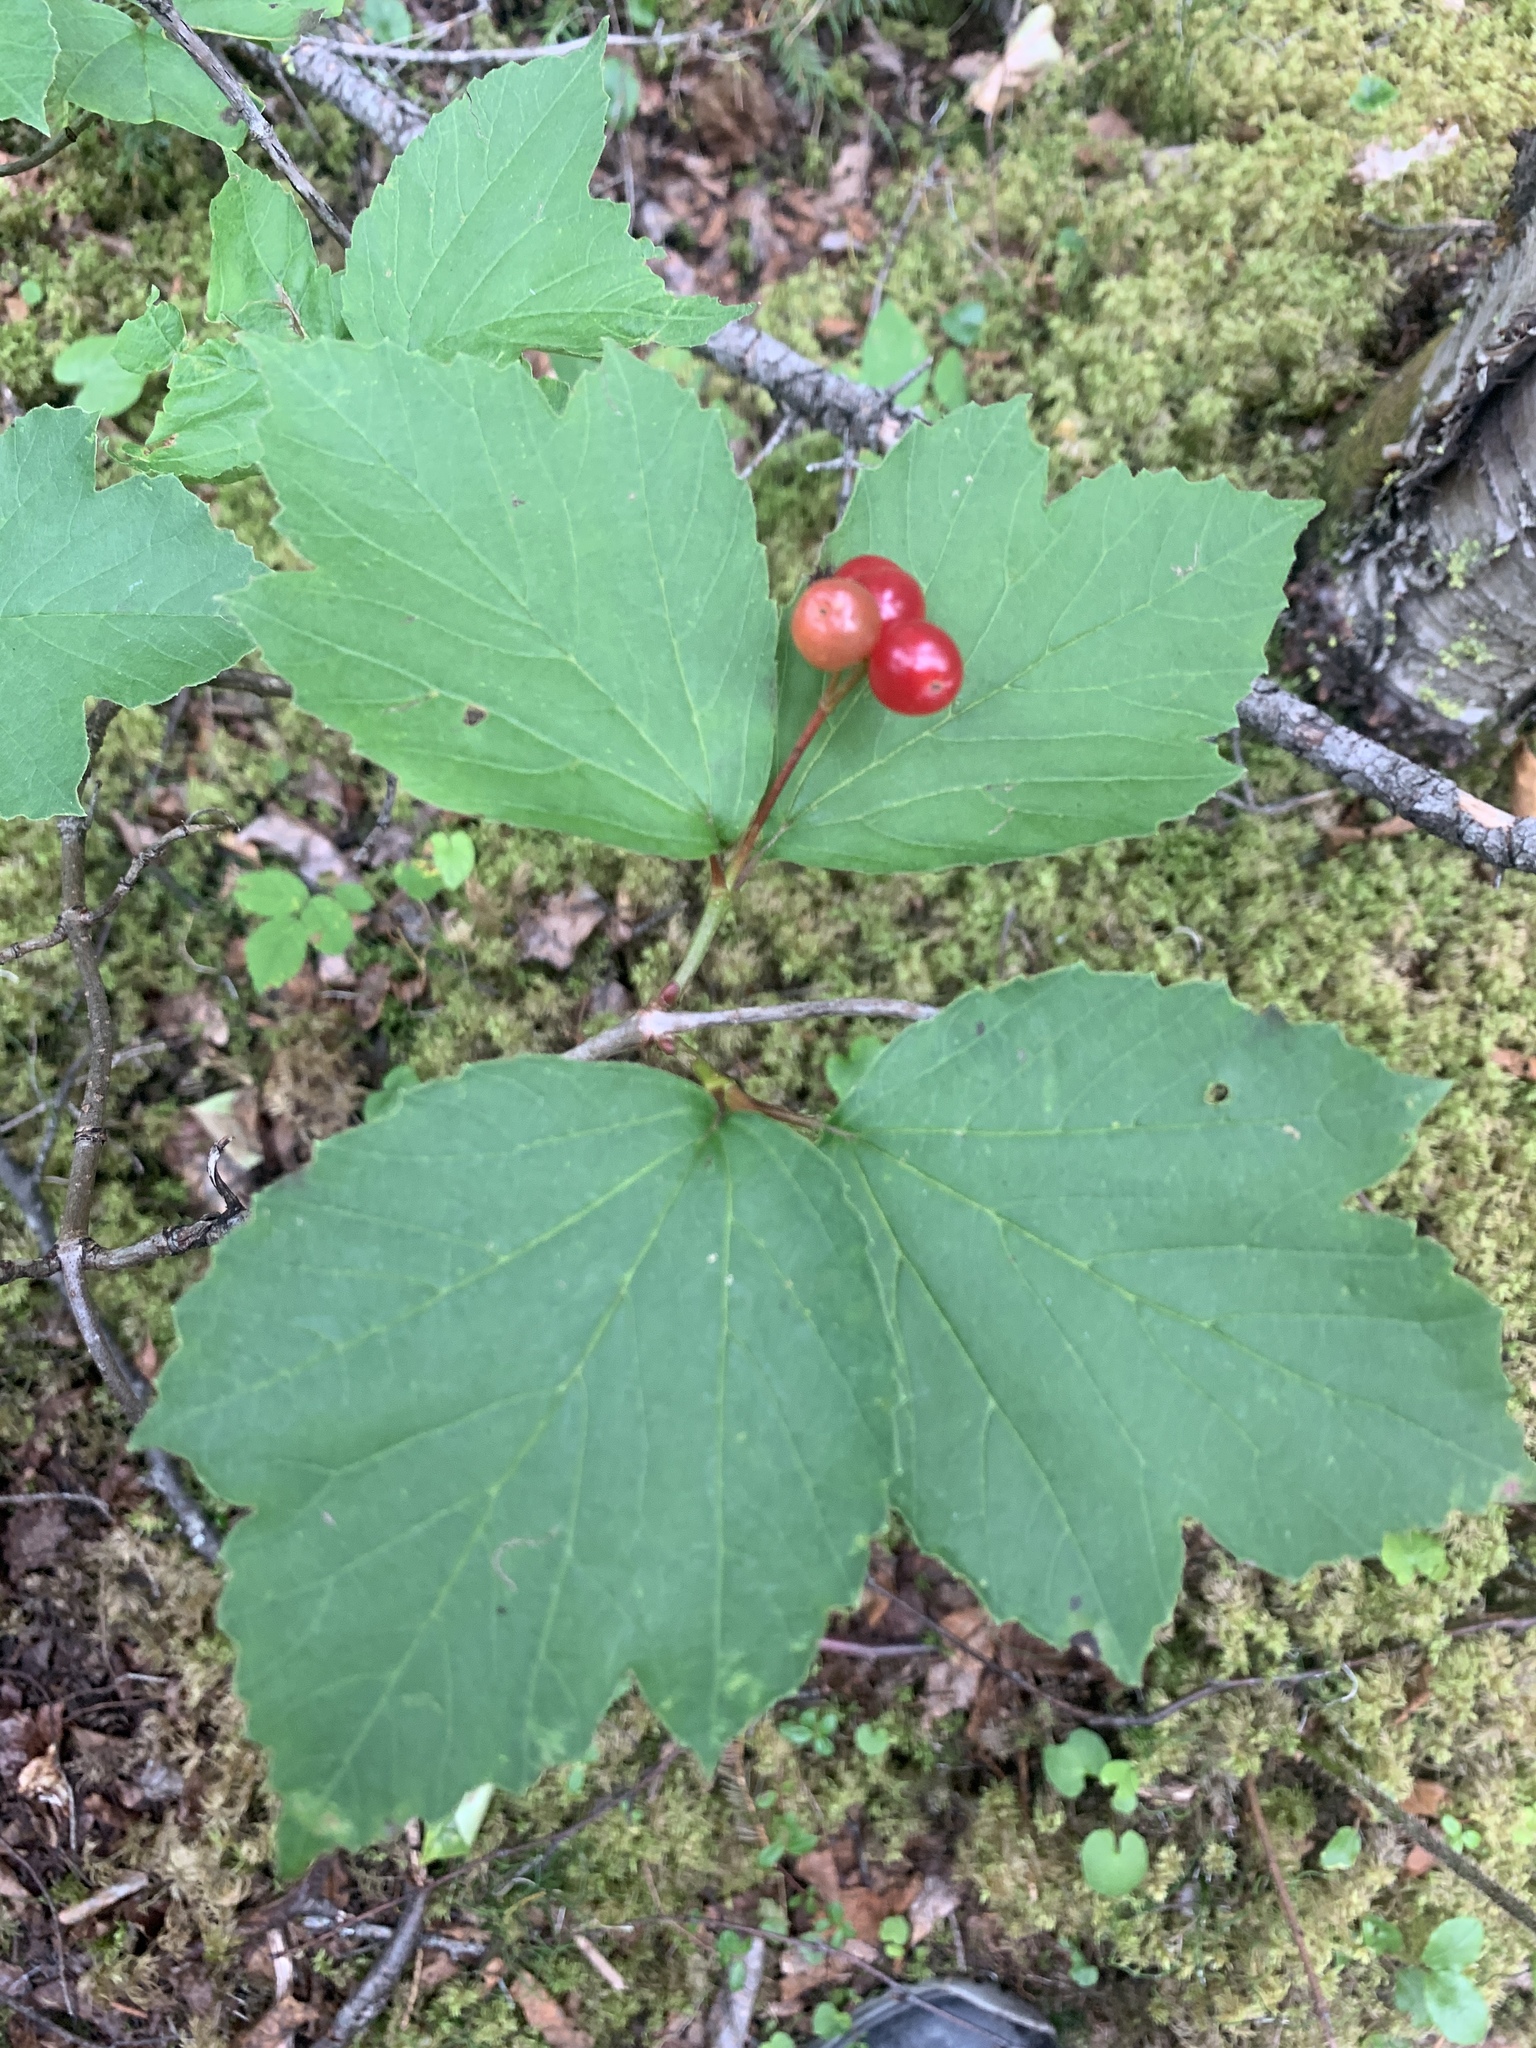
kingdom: Plantae
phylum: Tracheophyta
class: Magnoliopsida
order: Dipsacales
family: Viburnaceae
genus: Viburnum
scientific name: Viburnum edule
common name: Mooseberry
